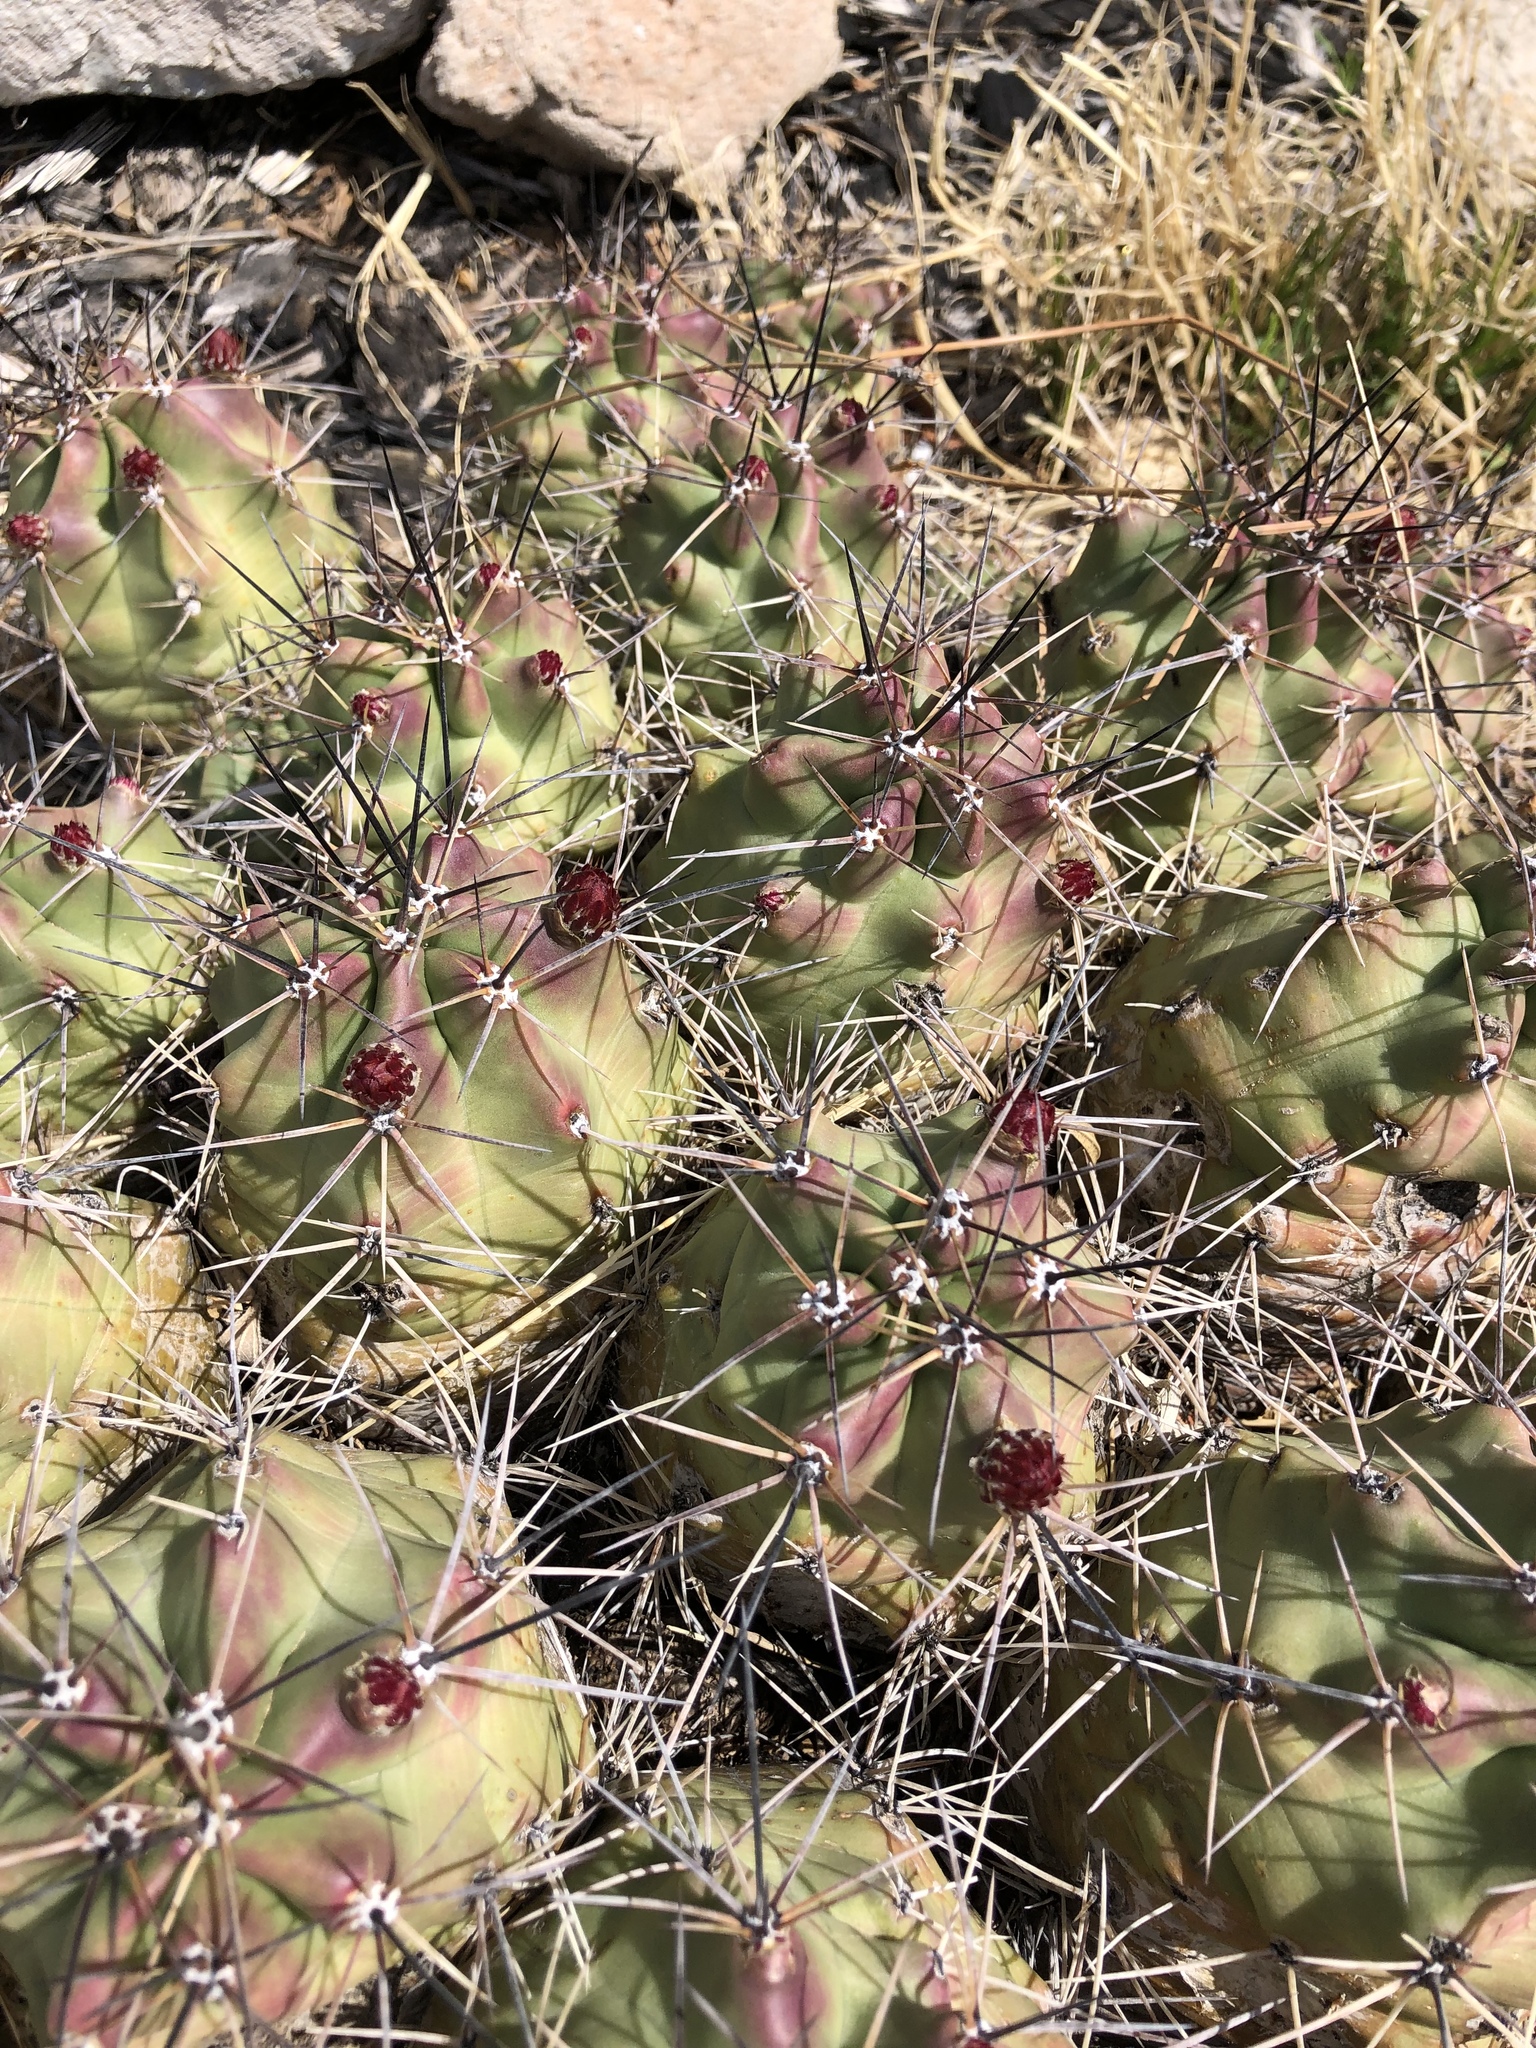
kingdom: Plantae
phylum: Tracheophyta
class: Magnoliopsida
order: Caryophyllales
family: Cactaceae
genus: Echinocereus
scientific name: Echinocereus coccineus
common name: Scarlet hedgehog cactus
